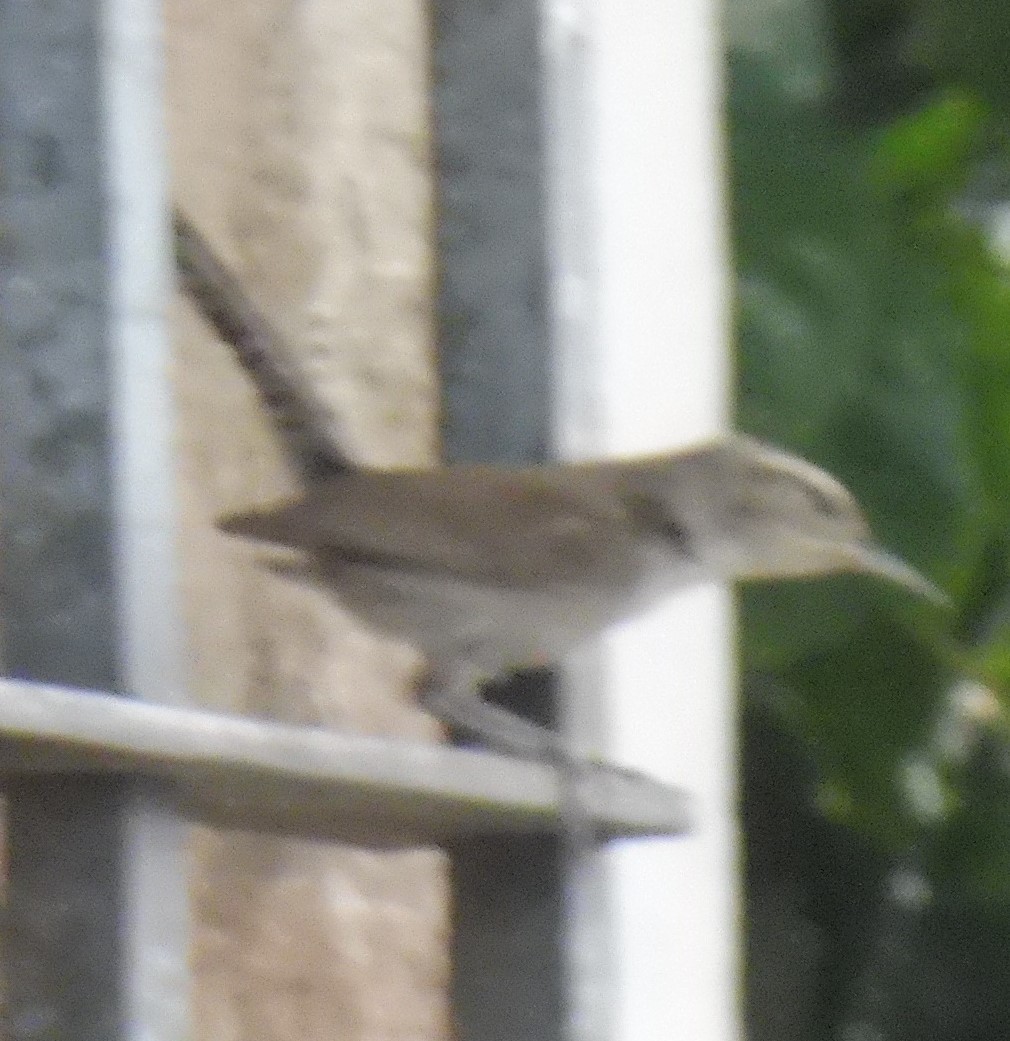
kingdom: Animalia
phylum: Chordata
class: Aves
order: Passeriformes
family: Troglodytidae
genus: Thryomanes
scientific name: Thryomanes bewickii
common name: Bewick's wren
